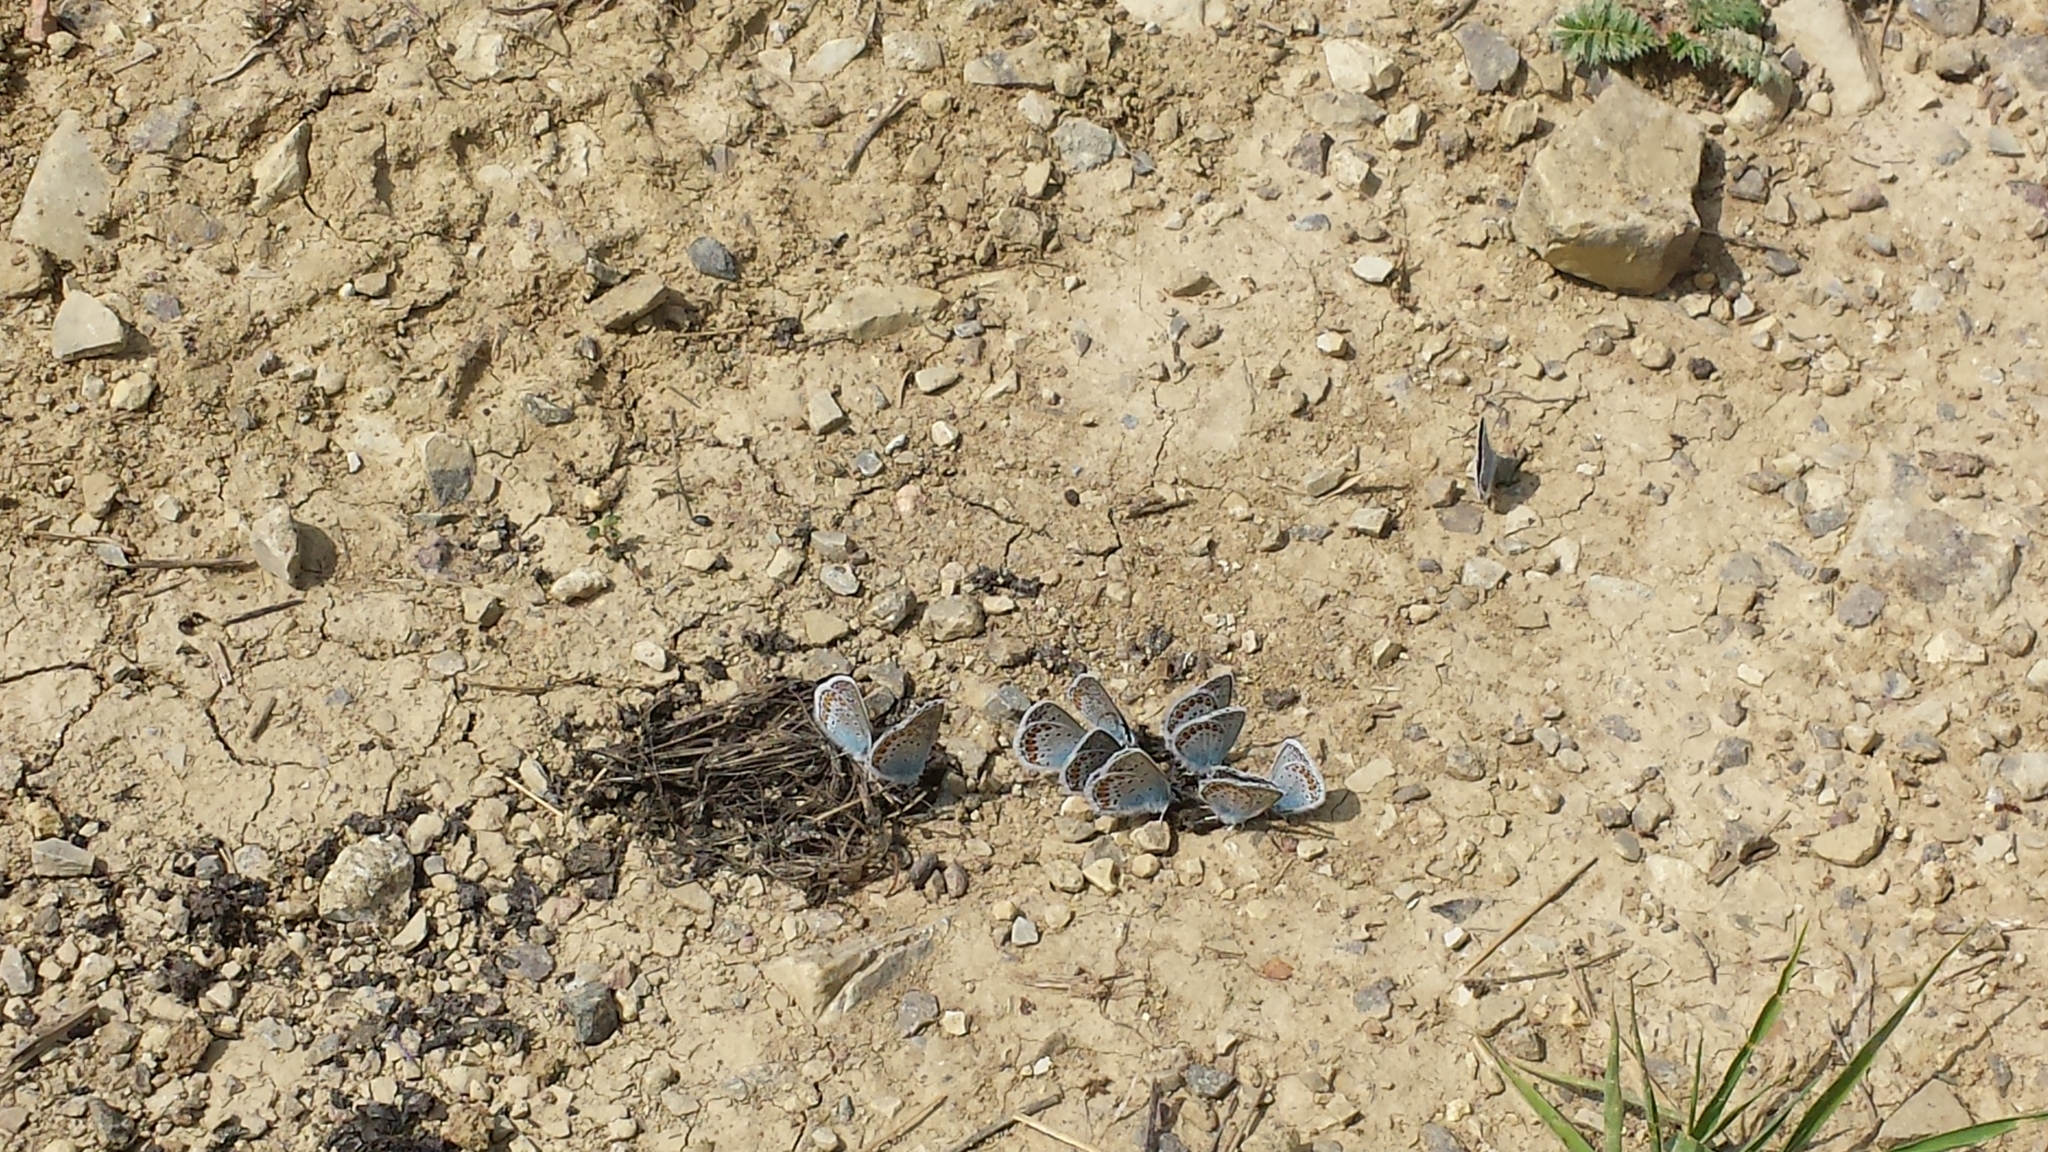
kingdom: Animalia
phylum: Arthropoda
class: Insecta
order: Lepidoptera
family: Lycaenidae
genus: Plebejus
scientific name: Plebejus argus
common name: Silver-studded blue
